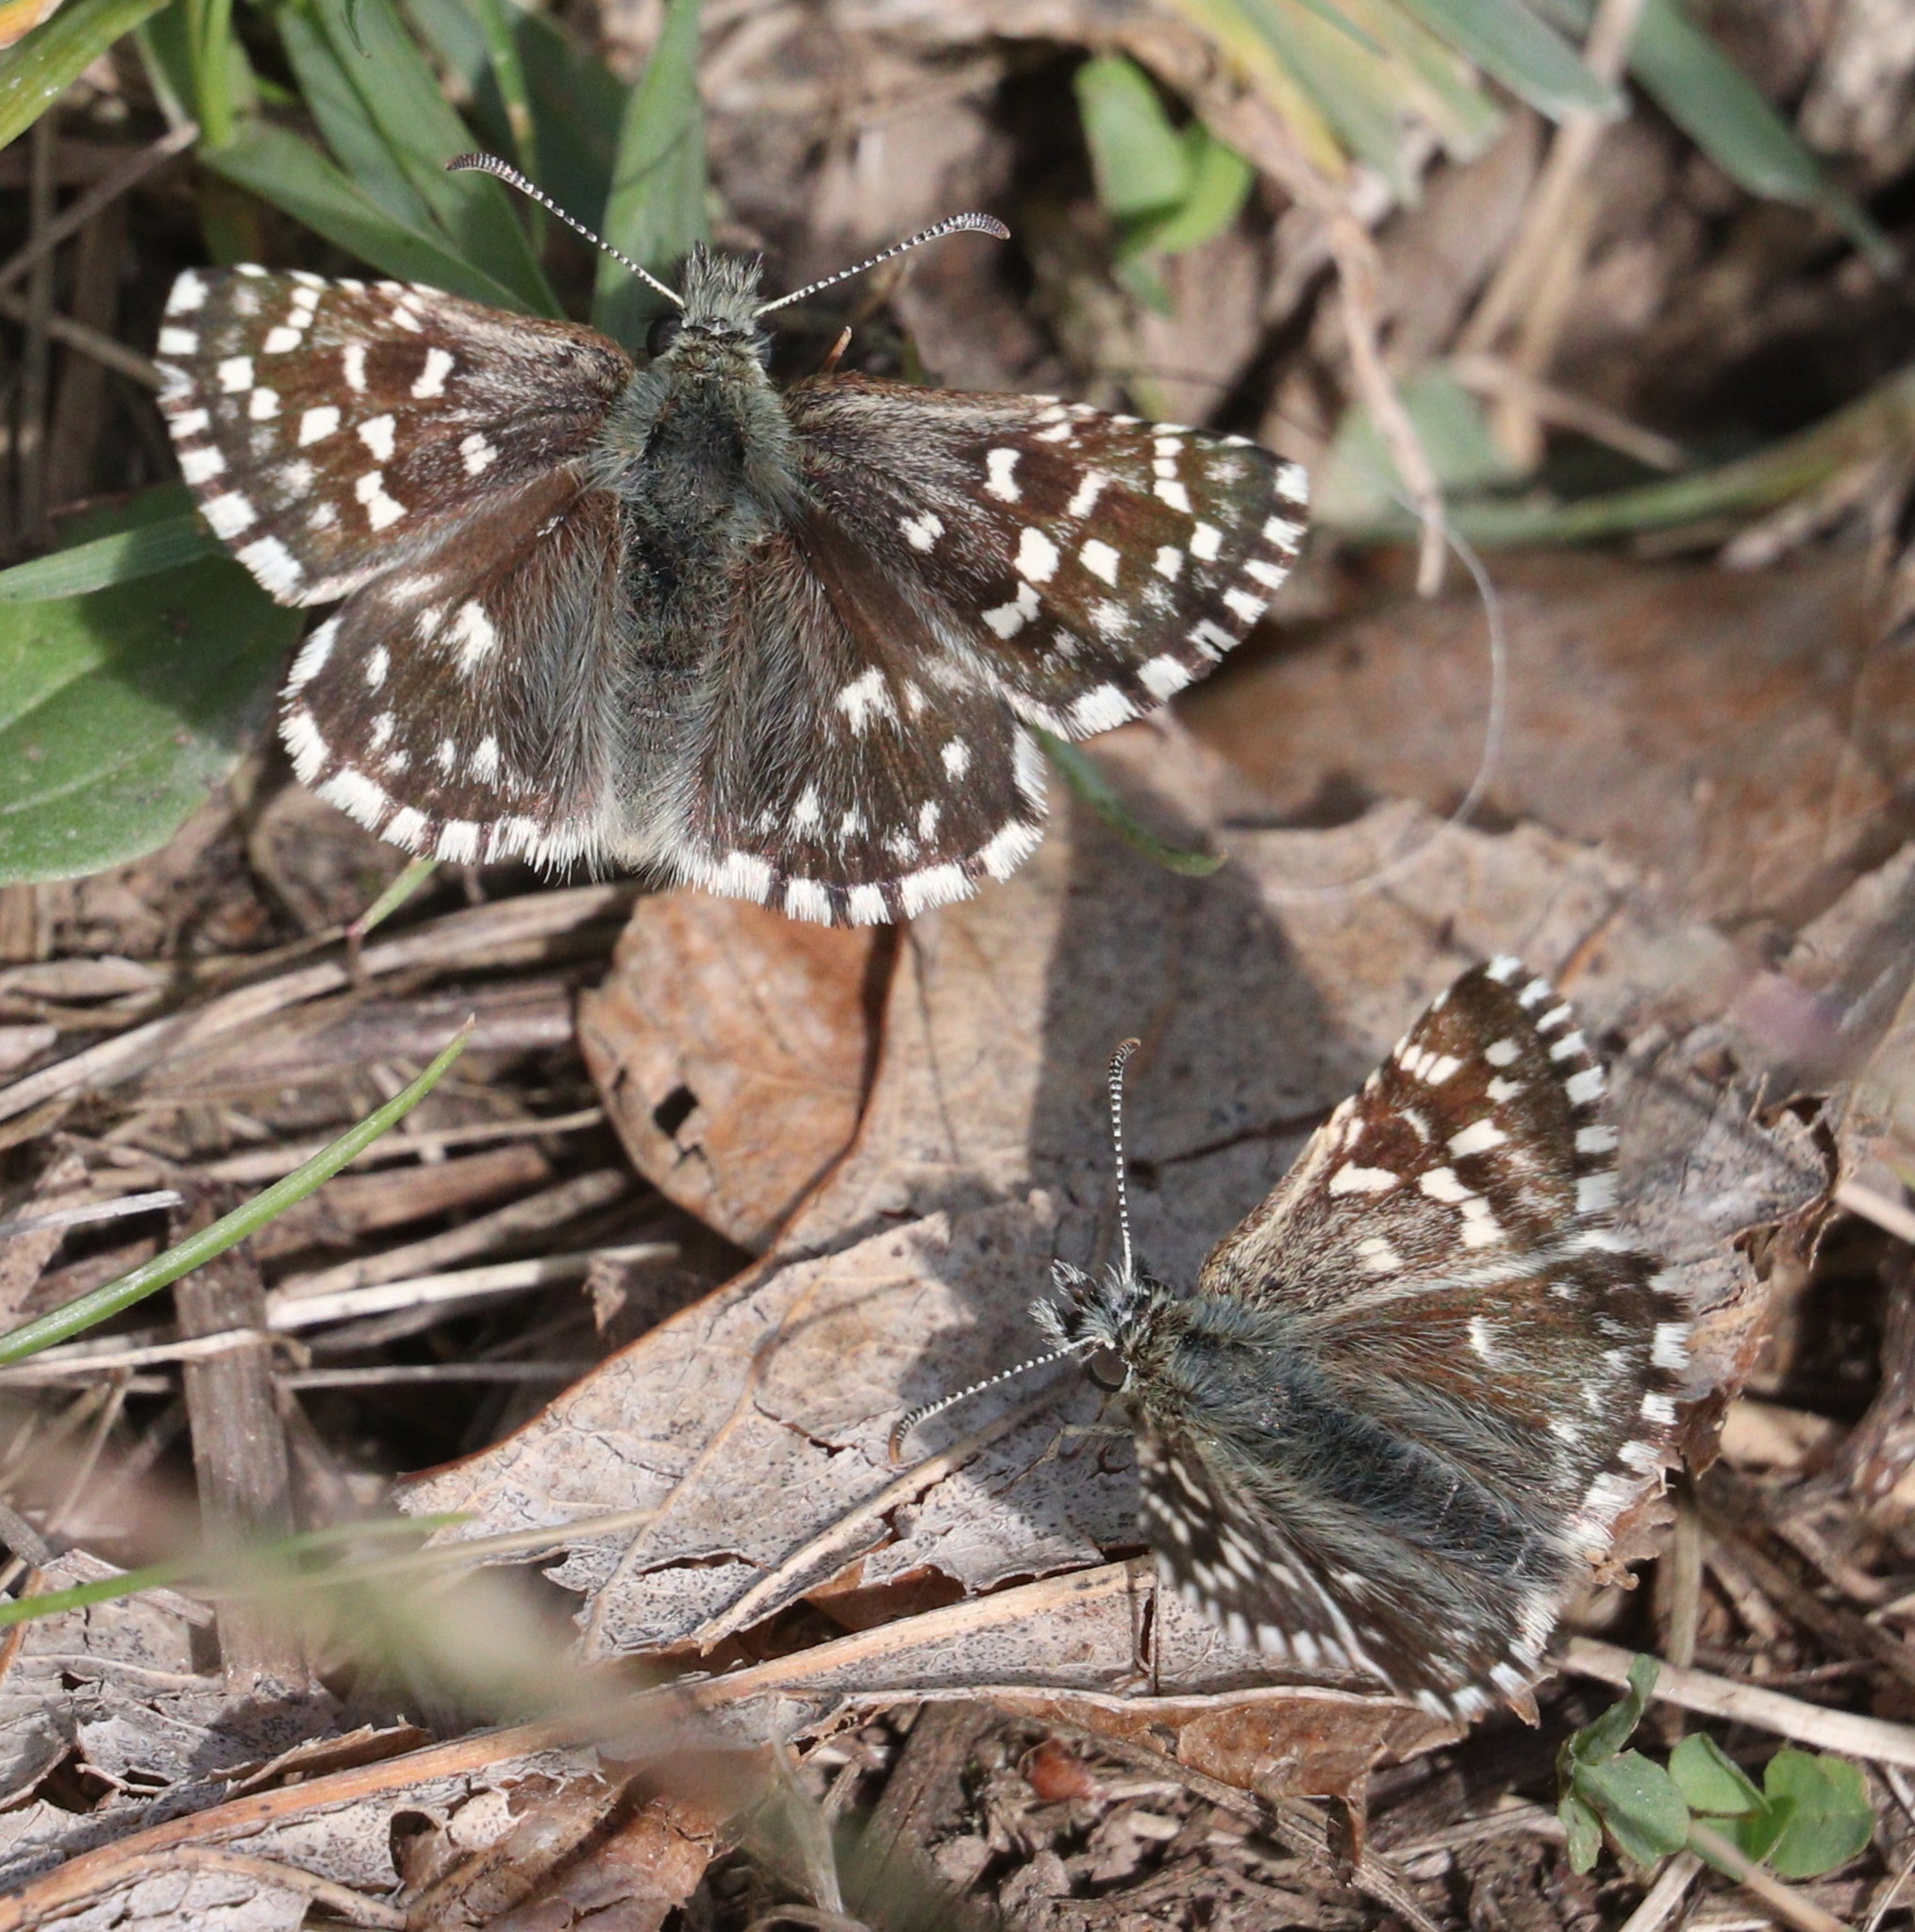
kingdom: Animalia
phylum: Arthropoda
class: Insecta
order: Lepidoptera
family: Hesperiidae
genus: Pyrgus
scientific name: Pyrgus malvae
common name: Grizzled skipper
